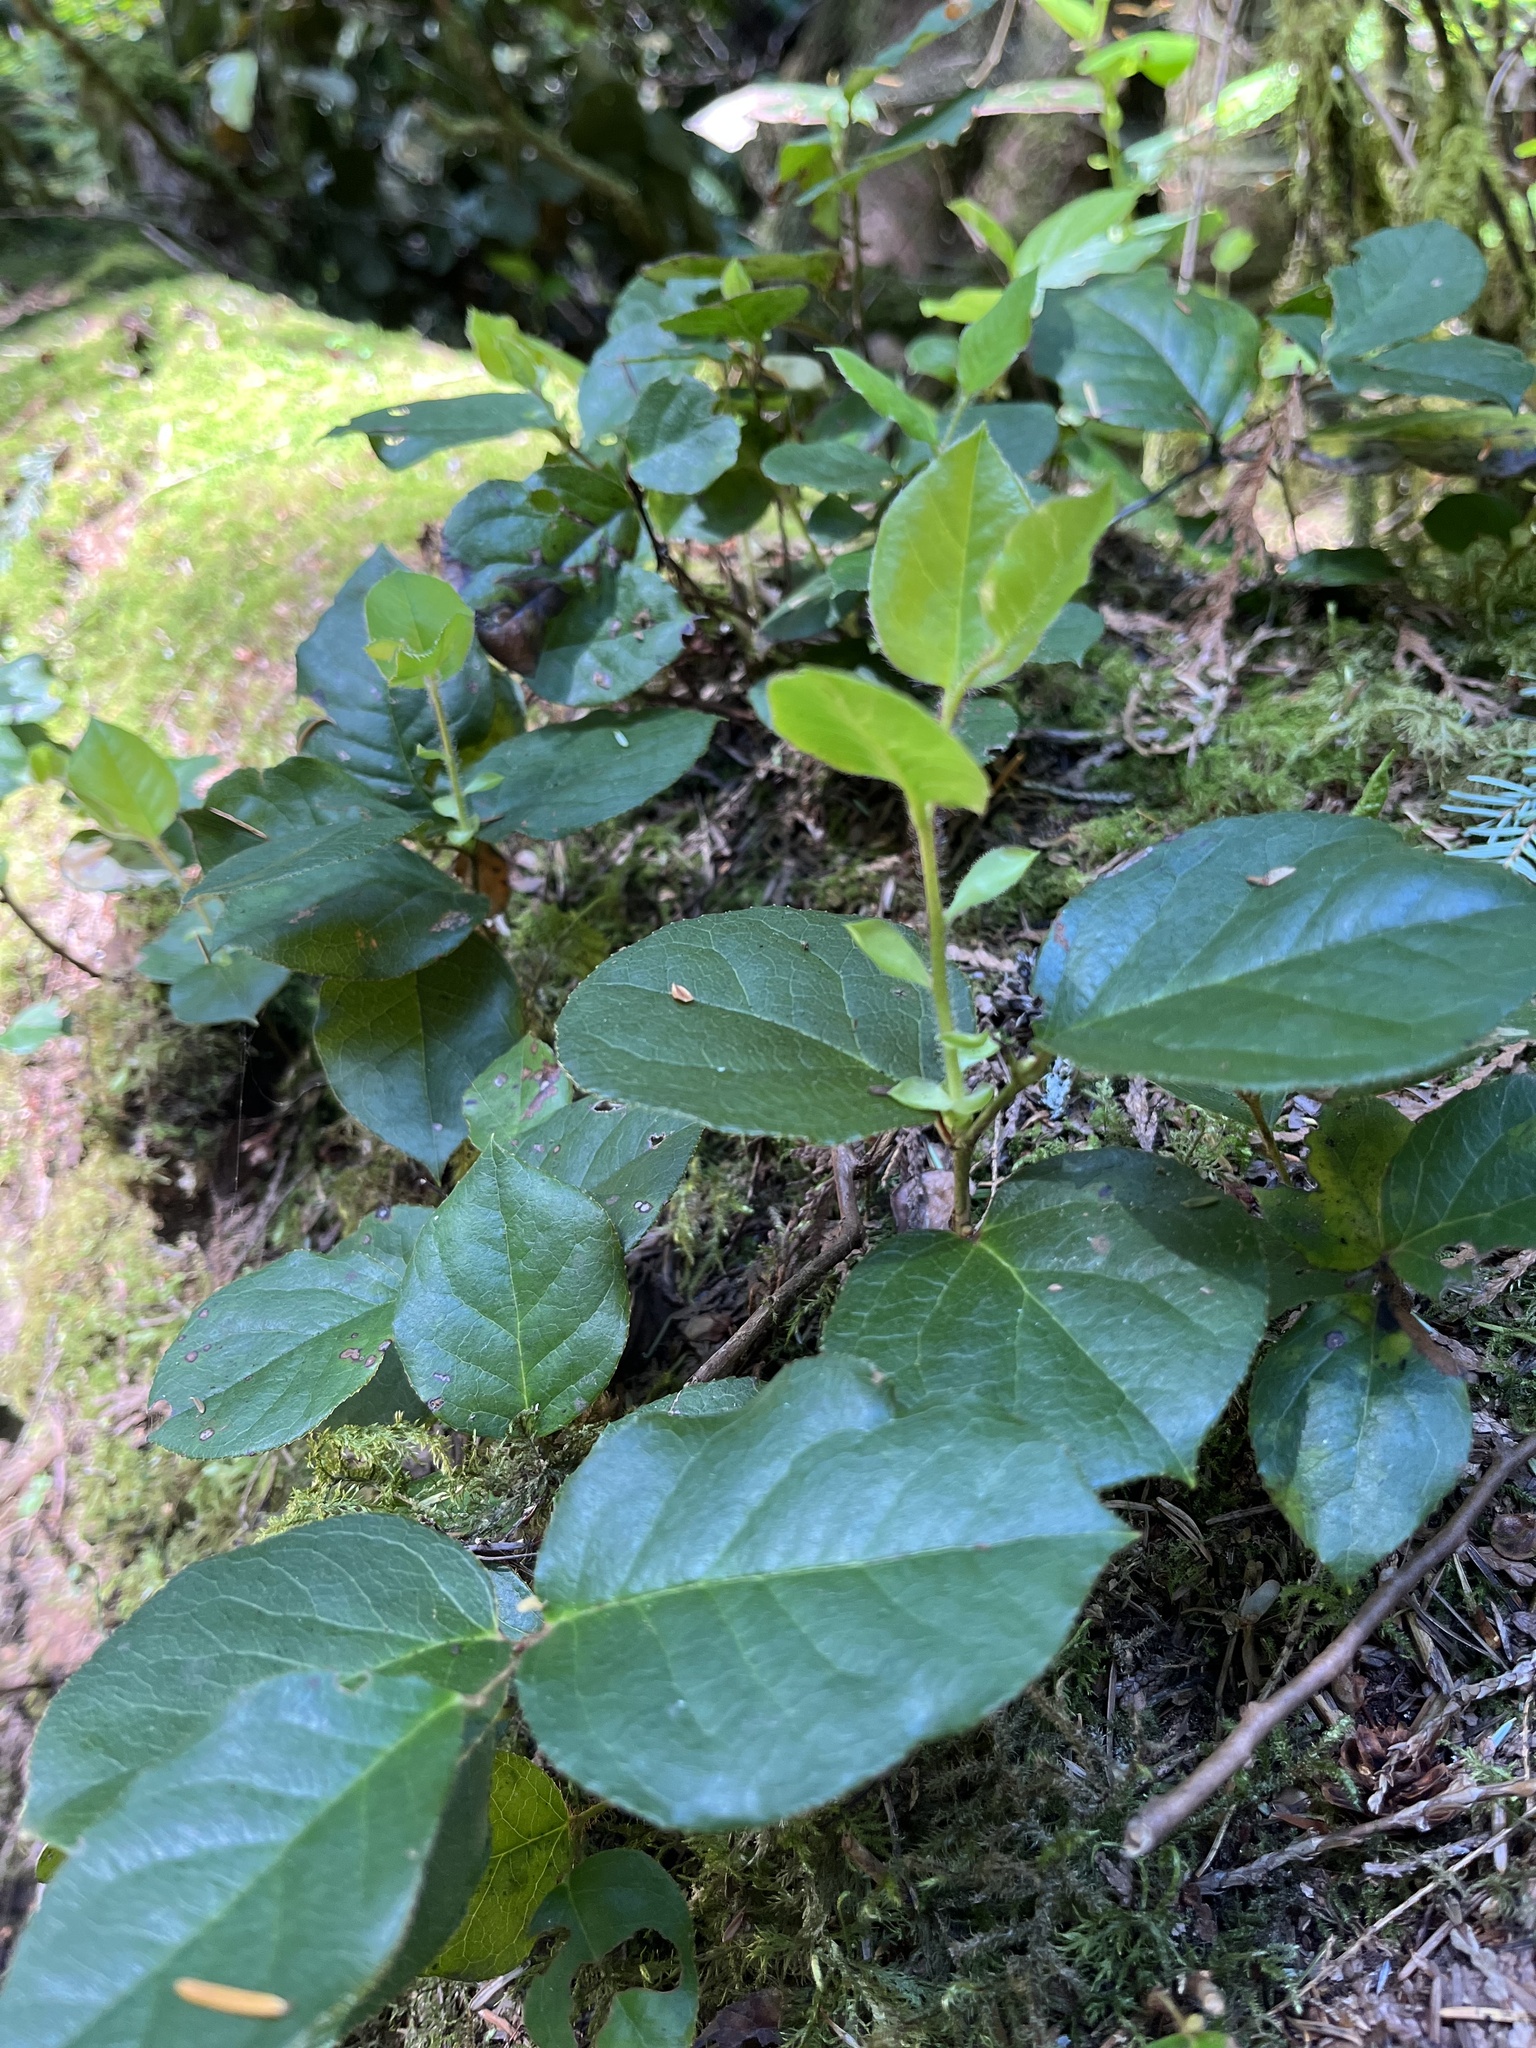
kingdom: Plantae
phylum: Tracheophyta
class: Magnoliopsida
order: Ericales
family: Ericaceae
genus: Gaultheria
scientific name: Gaultheria shallon
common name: Shallon
